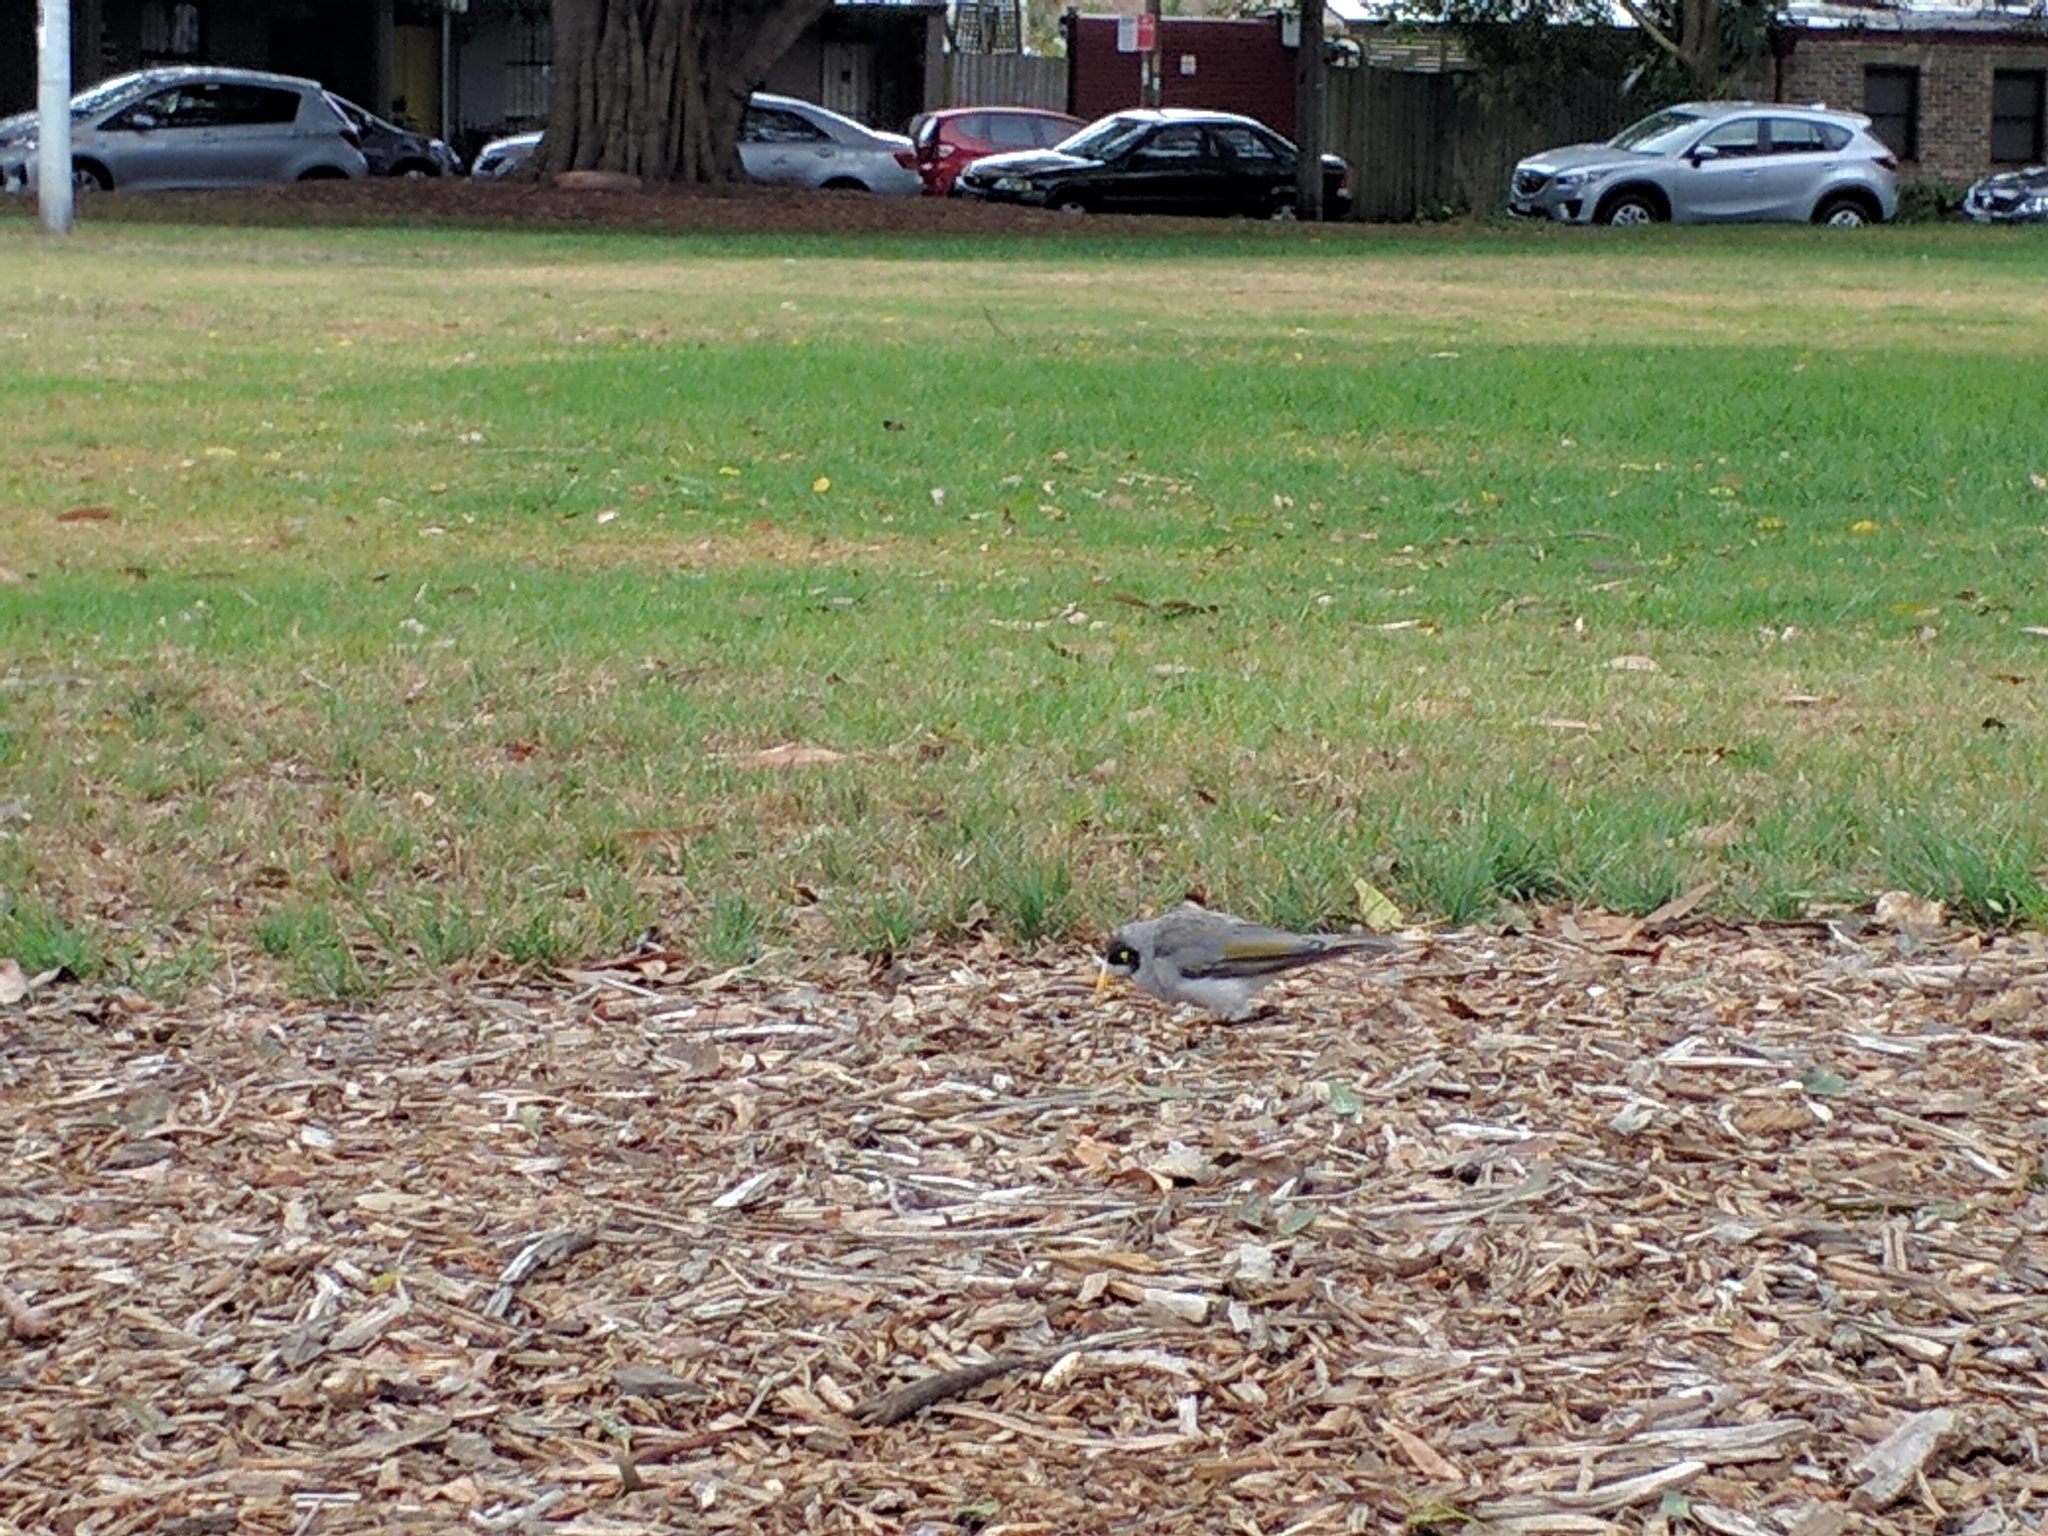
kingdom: Animalia
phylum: Chordata
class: Aves
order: Passeriformes
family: Meliphagidae
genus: Manorina
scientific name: Manorina melanocephala
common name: Noisy miner
